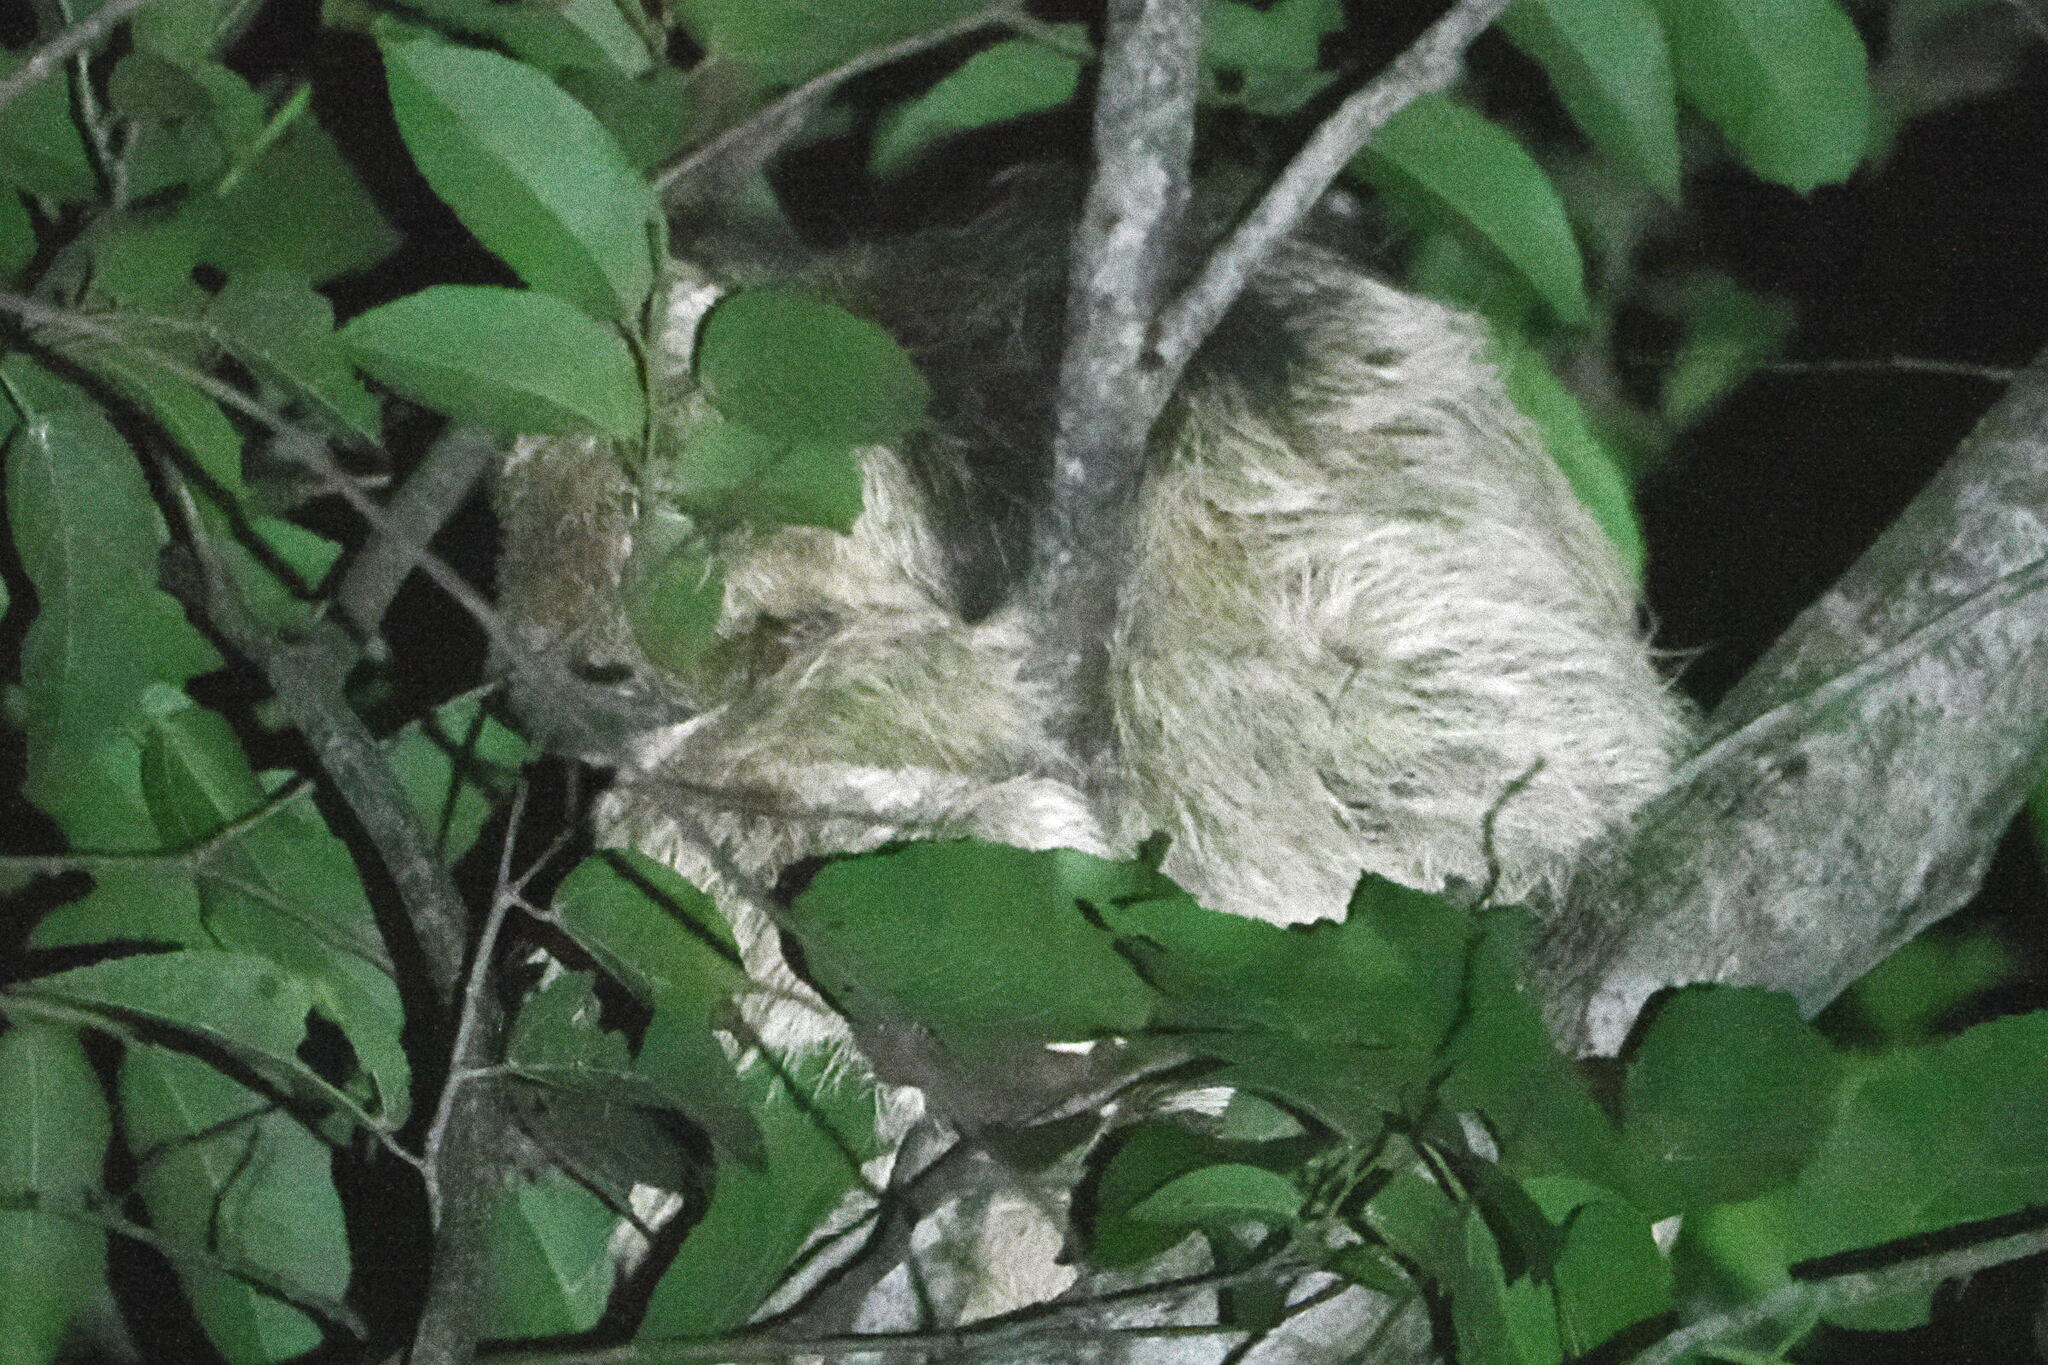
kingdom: Animalia
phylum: Chordata
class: Mammalia
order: Pilosa
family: Bradypodidae
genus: Bradypus
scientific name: Bradypus torquatus
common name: Maned sloth
